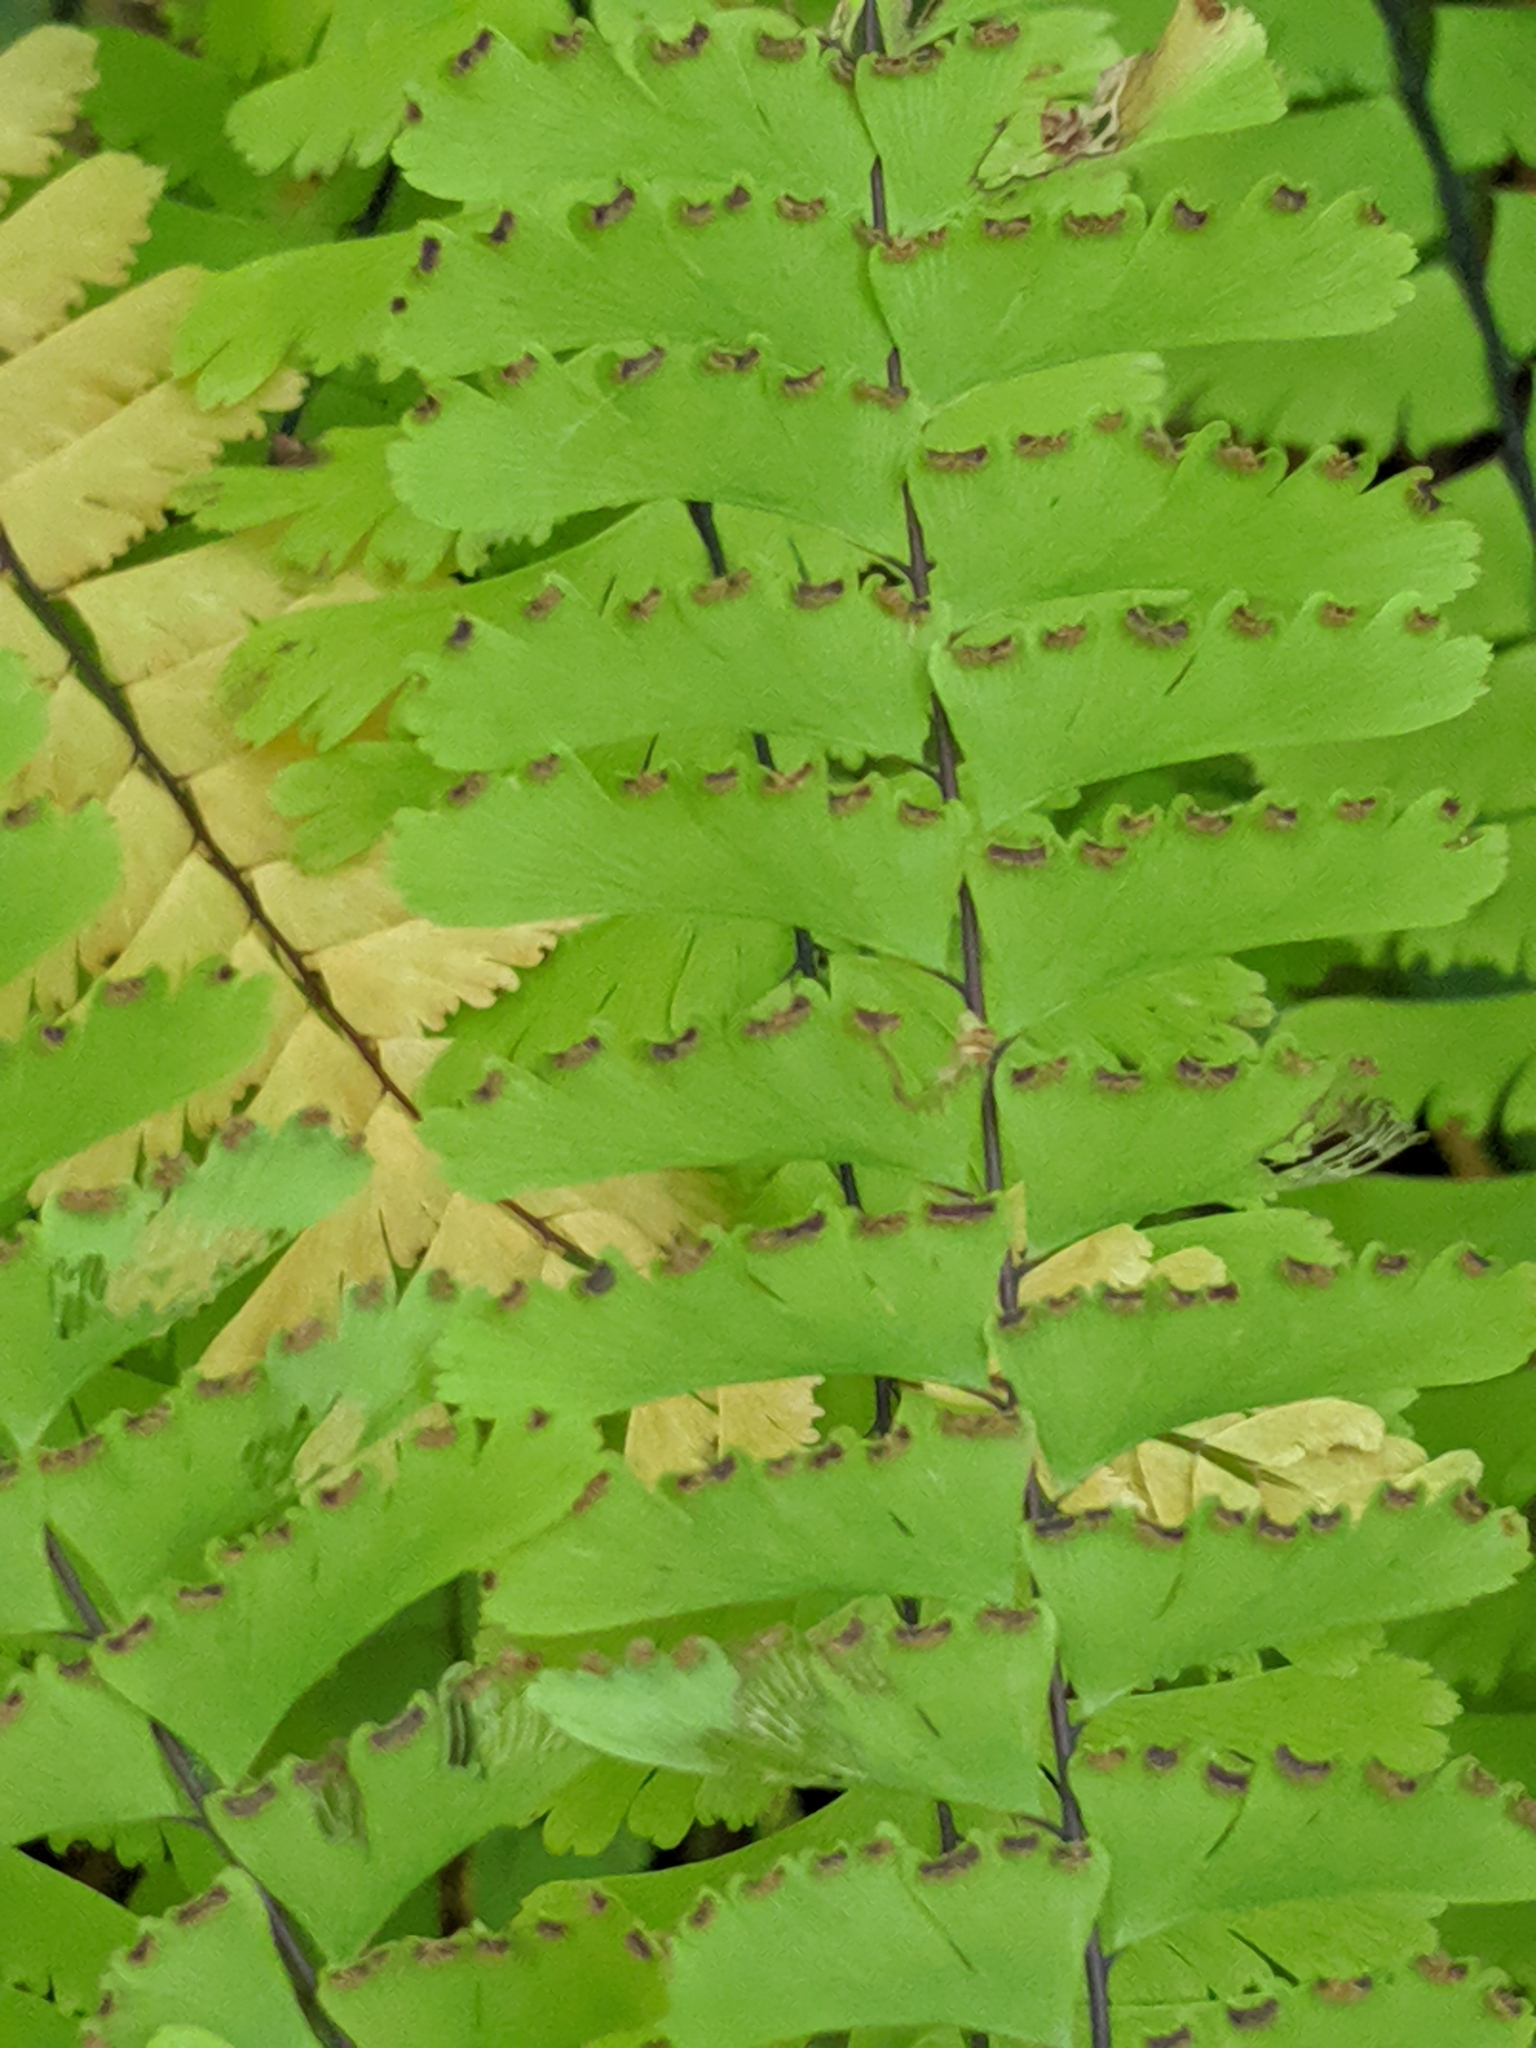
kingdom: Plantae
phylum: Tracheophyta
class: Polypodiopsida
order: Polypodiales
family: Pteridaceae
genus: Adiantum
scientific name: Adiantum aleuticum
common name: Aleutian maidenhair fern
